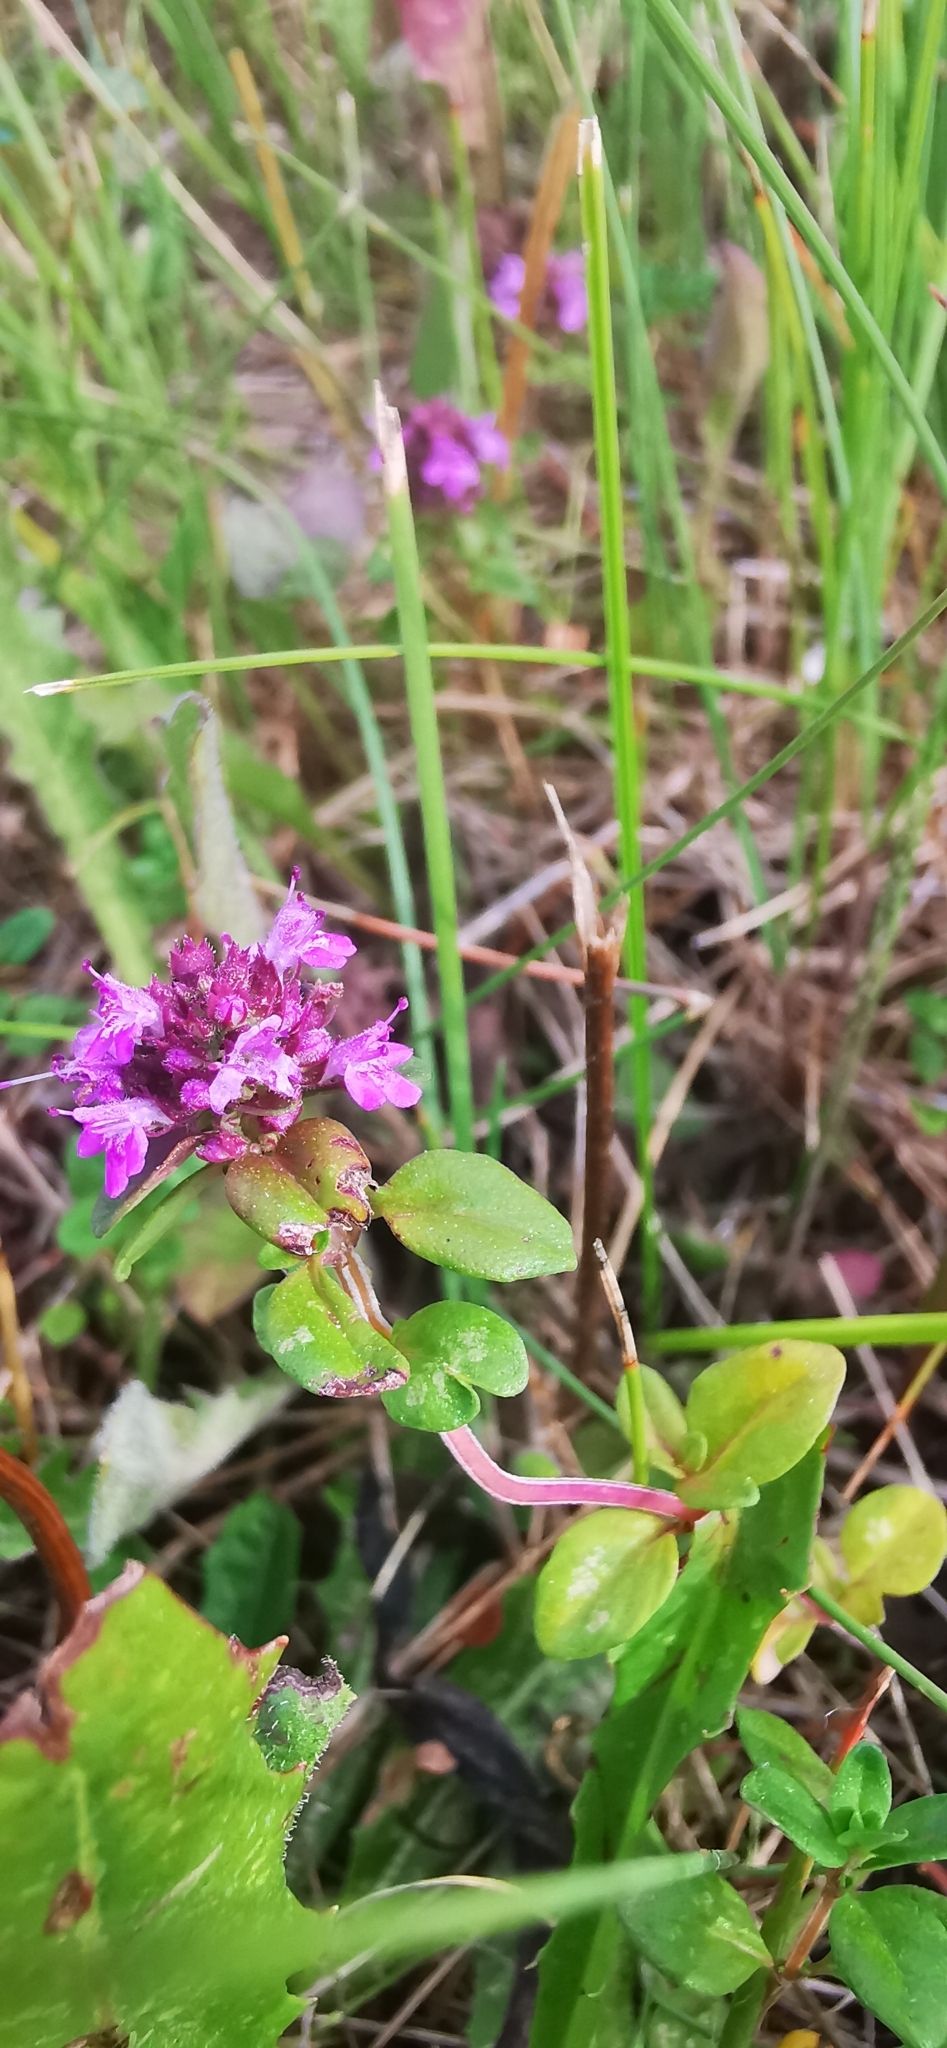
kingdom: Plantae
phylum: Tracheophyta
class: Magnoliopsida
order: Lamiales
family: Lamiaceae
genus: Thymus
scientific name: Thymus pulegioides
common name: Large thyme
